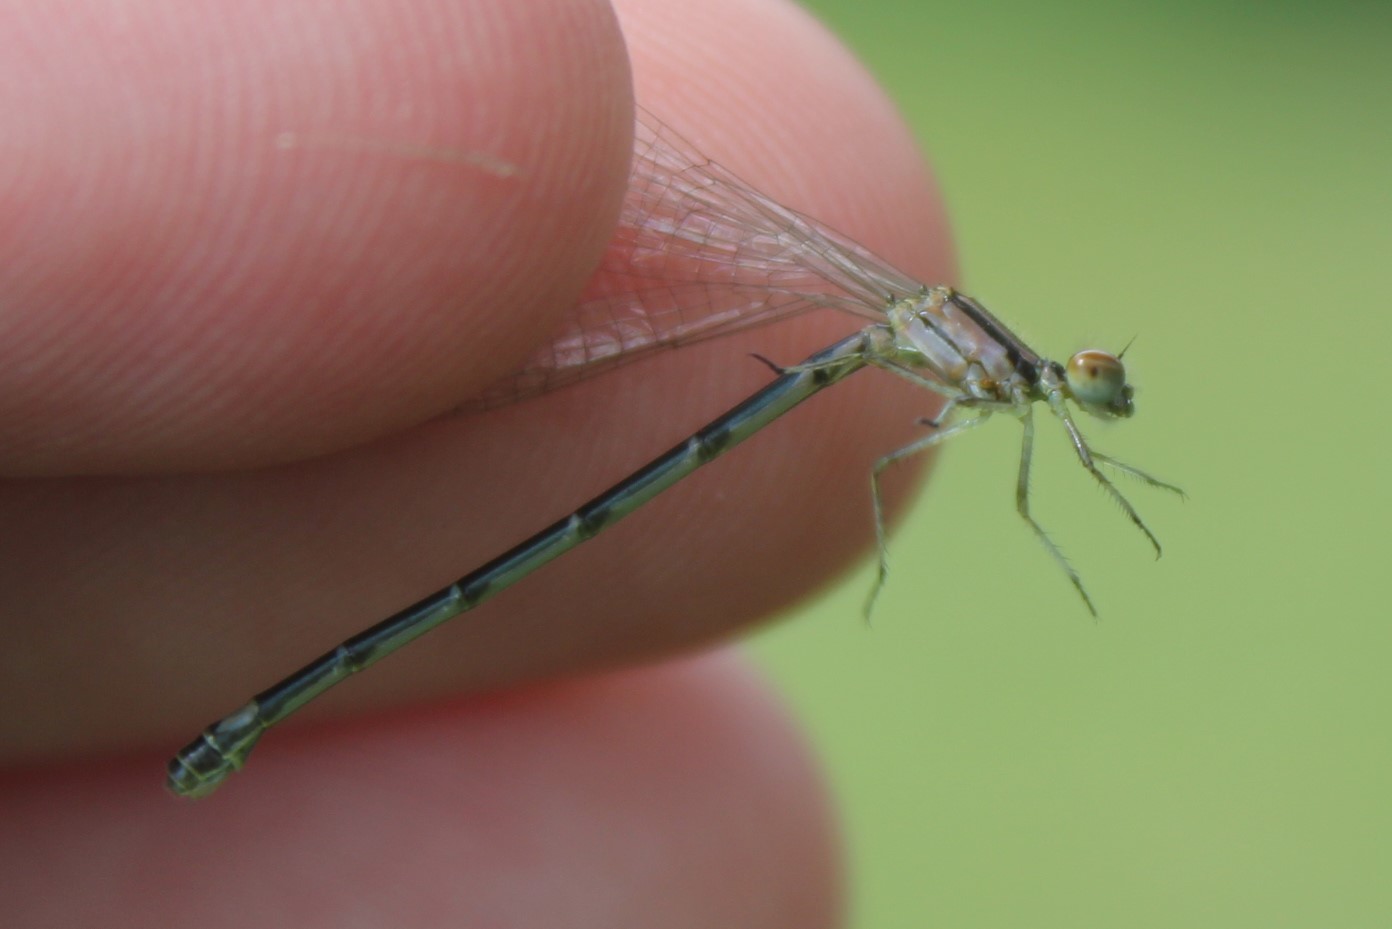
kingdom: Animalia
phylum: Arthropoda
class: Insecta
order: Odonata
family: Coenagrionidae
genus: Enallagma
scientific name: Enallagma geminatum
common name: Skimming bluet
